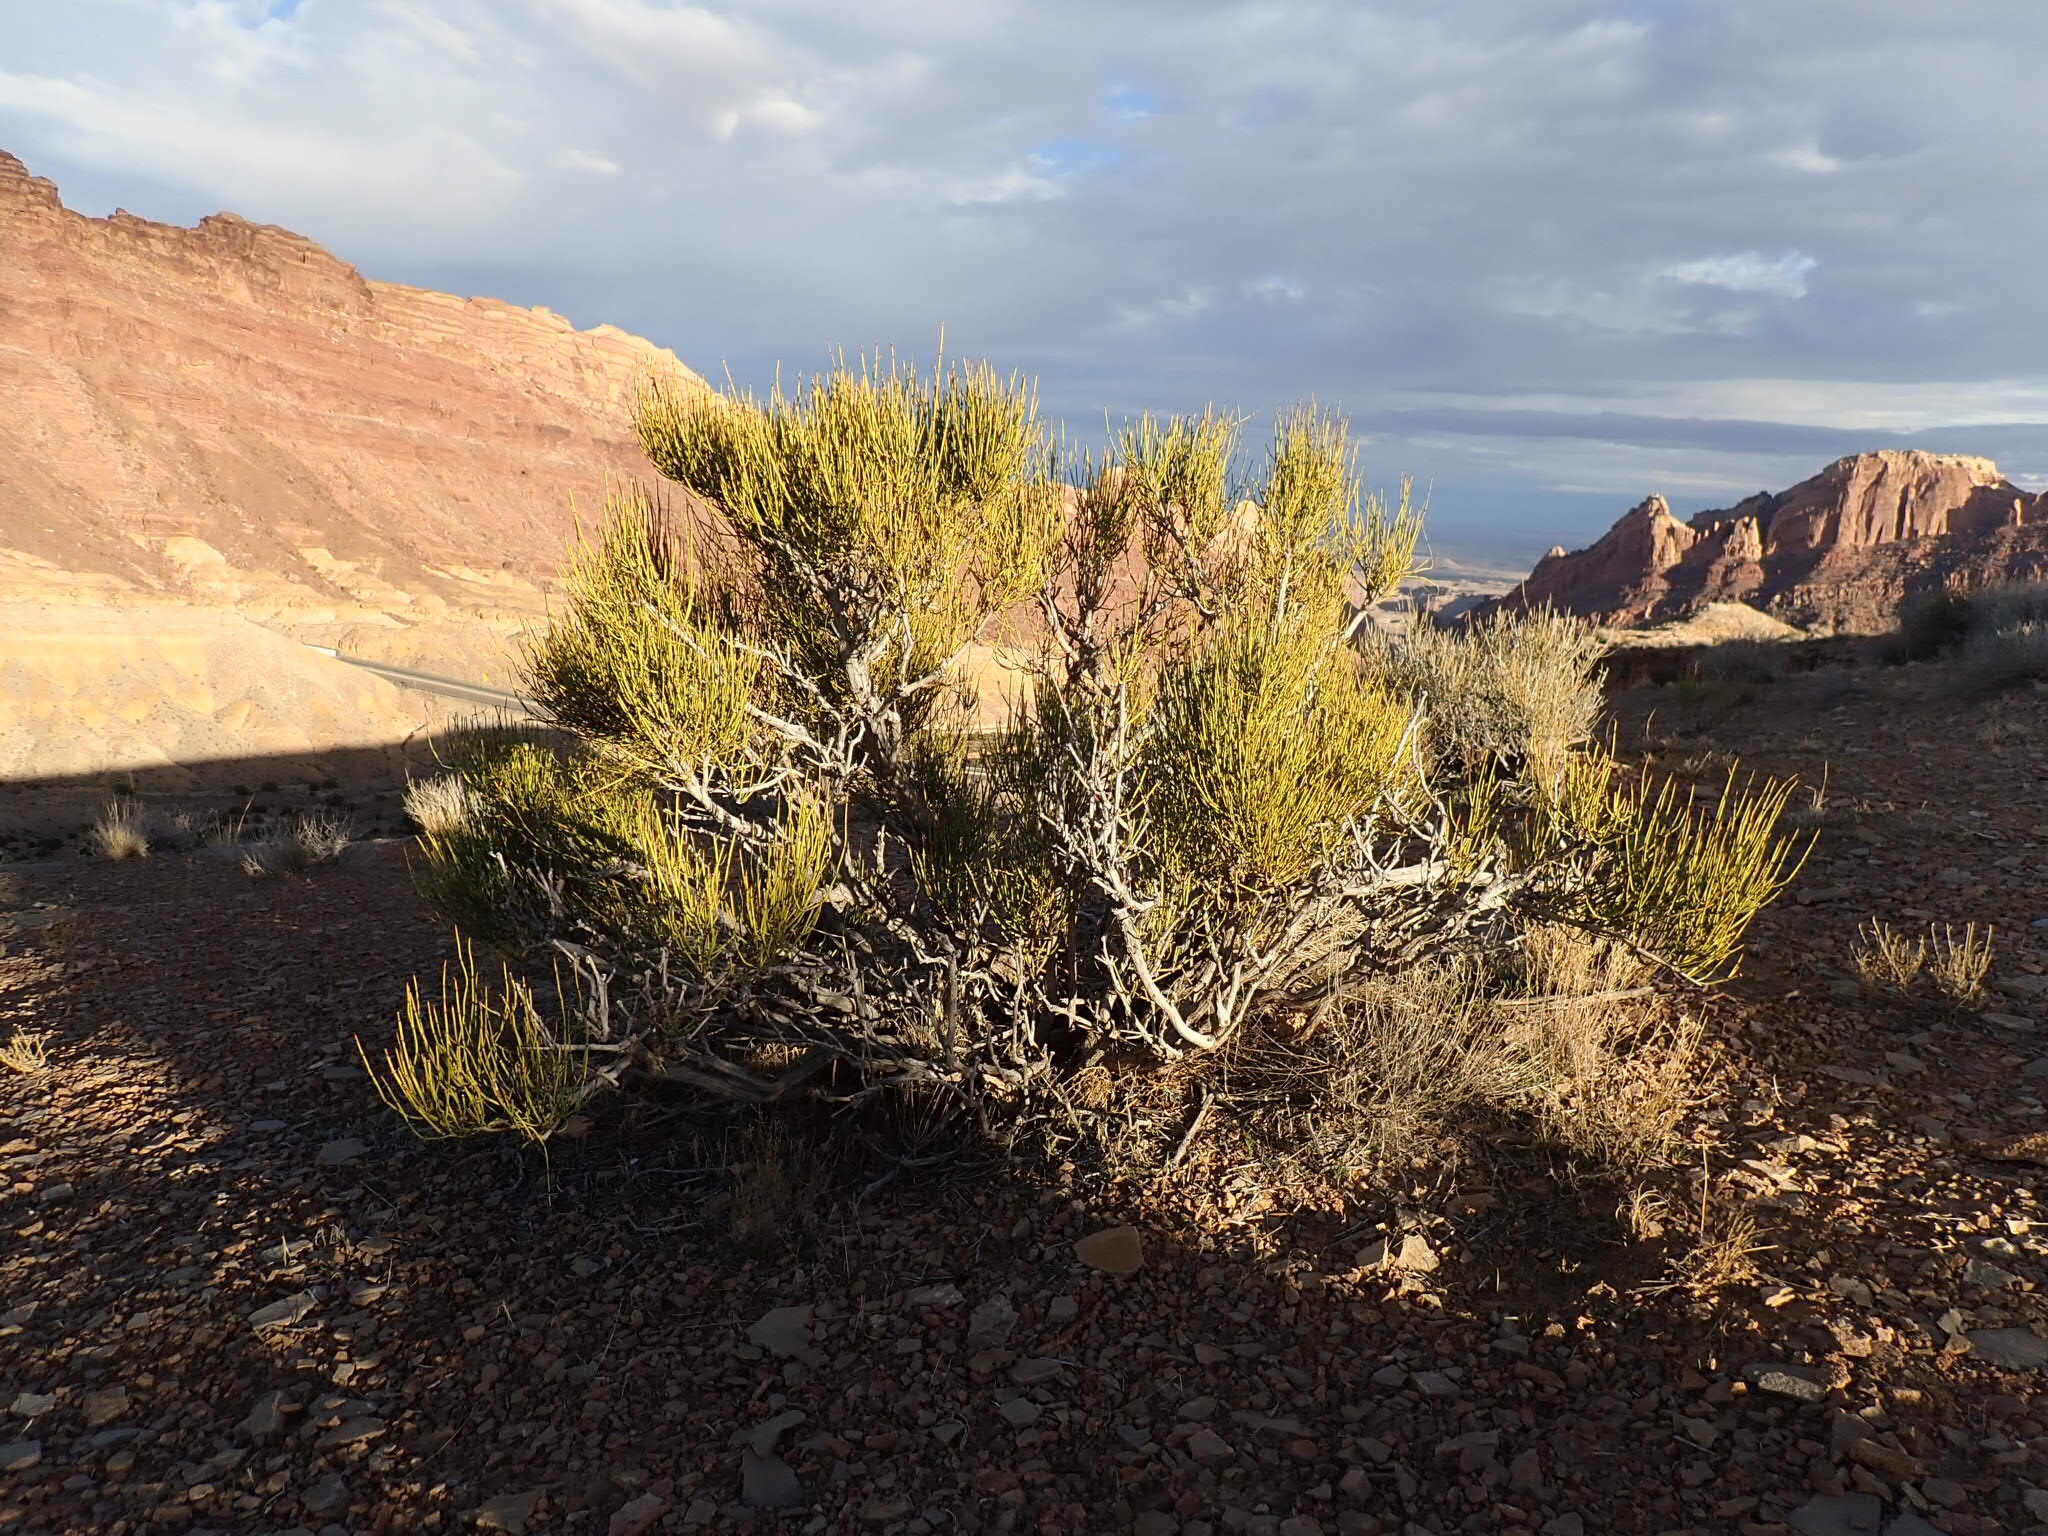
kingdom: Plantae
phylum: Tracheophyta
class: Gnetopsida
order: Ephedrales
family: Ephedraceae
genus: Ephedra
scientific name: Ephedra viridis
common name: Green ephedra
